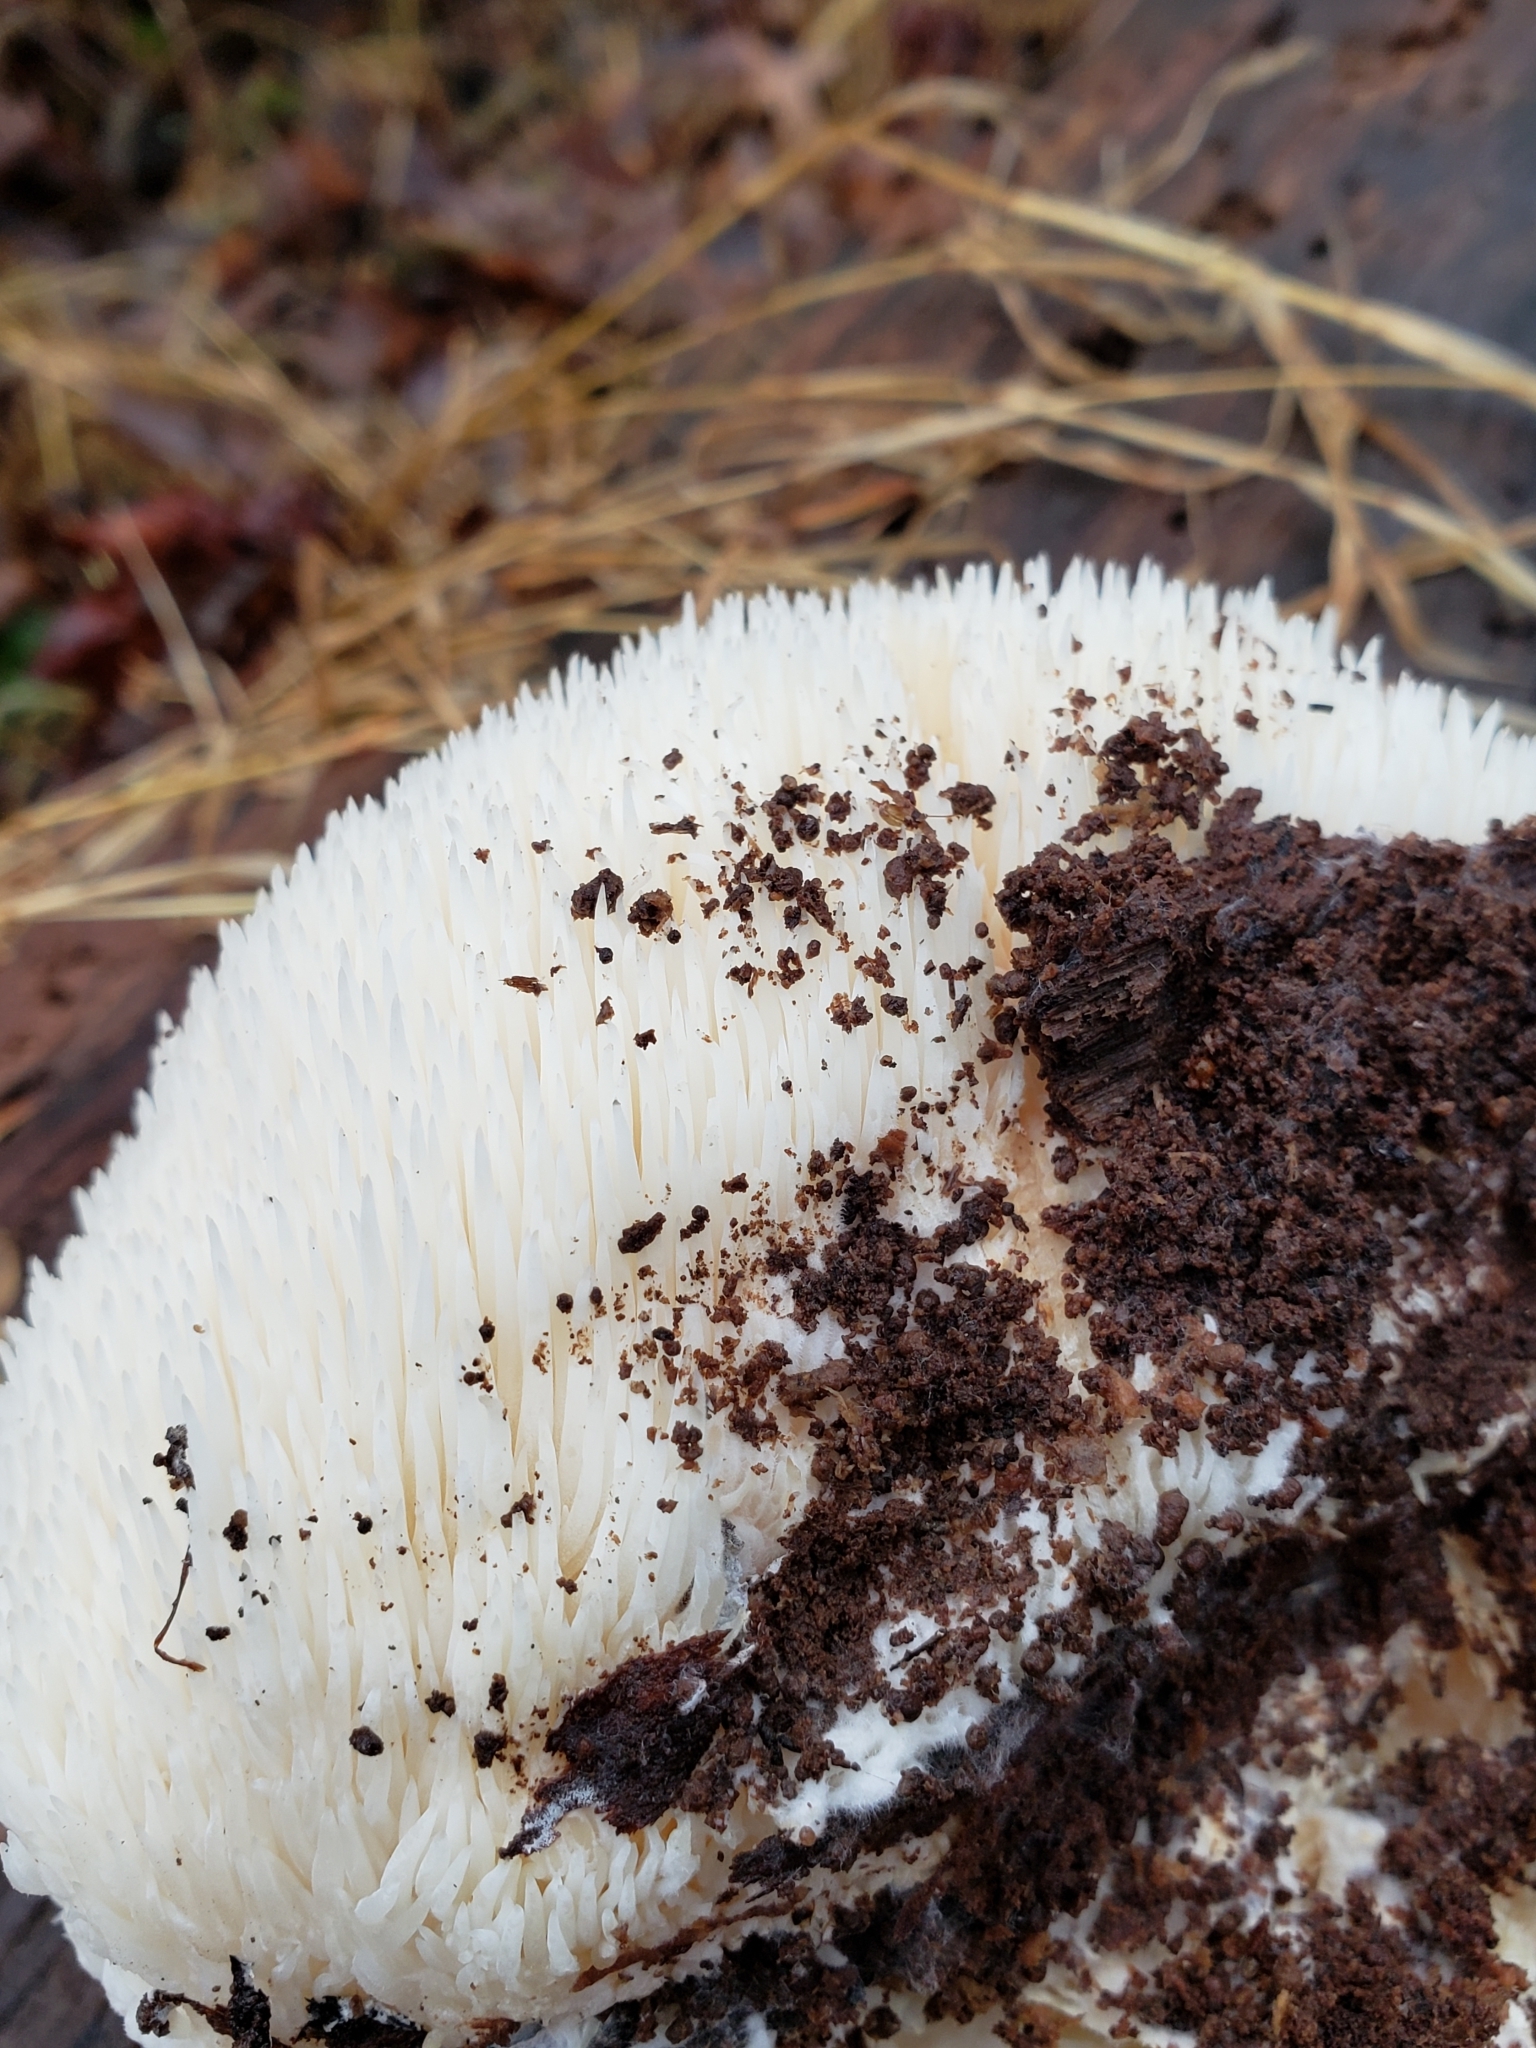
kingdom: Fungi
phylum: Basidiomycota
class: Agaricomycetes
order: Russulales
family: Hericiaceae
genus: Hericium
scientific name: Hericium erinaceus
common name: Bearded tooth
